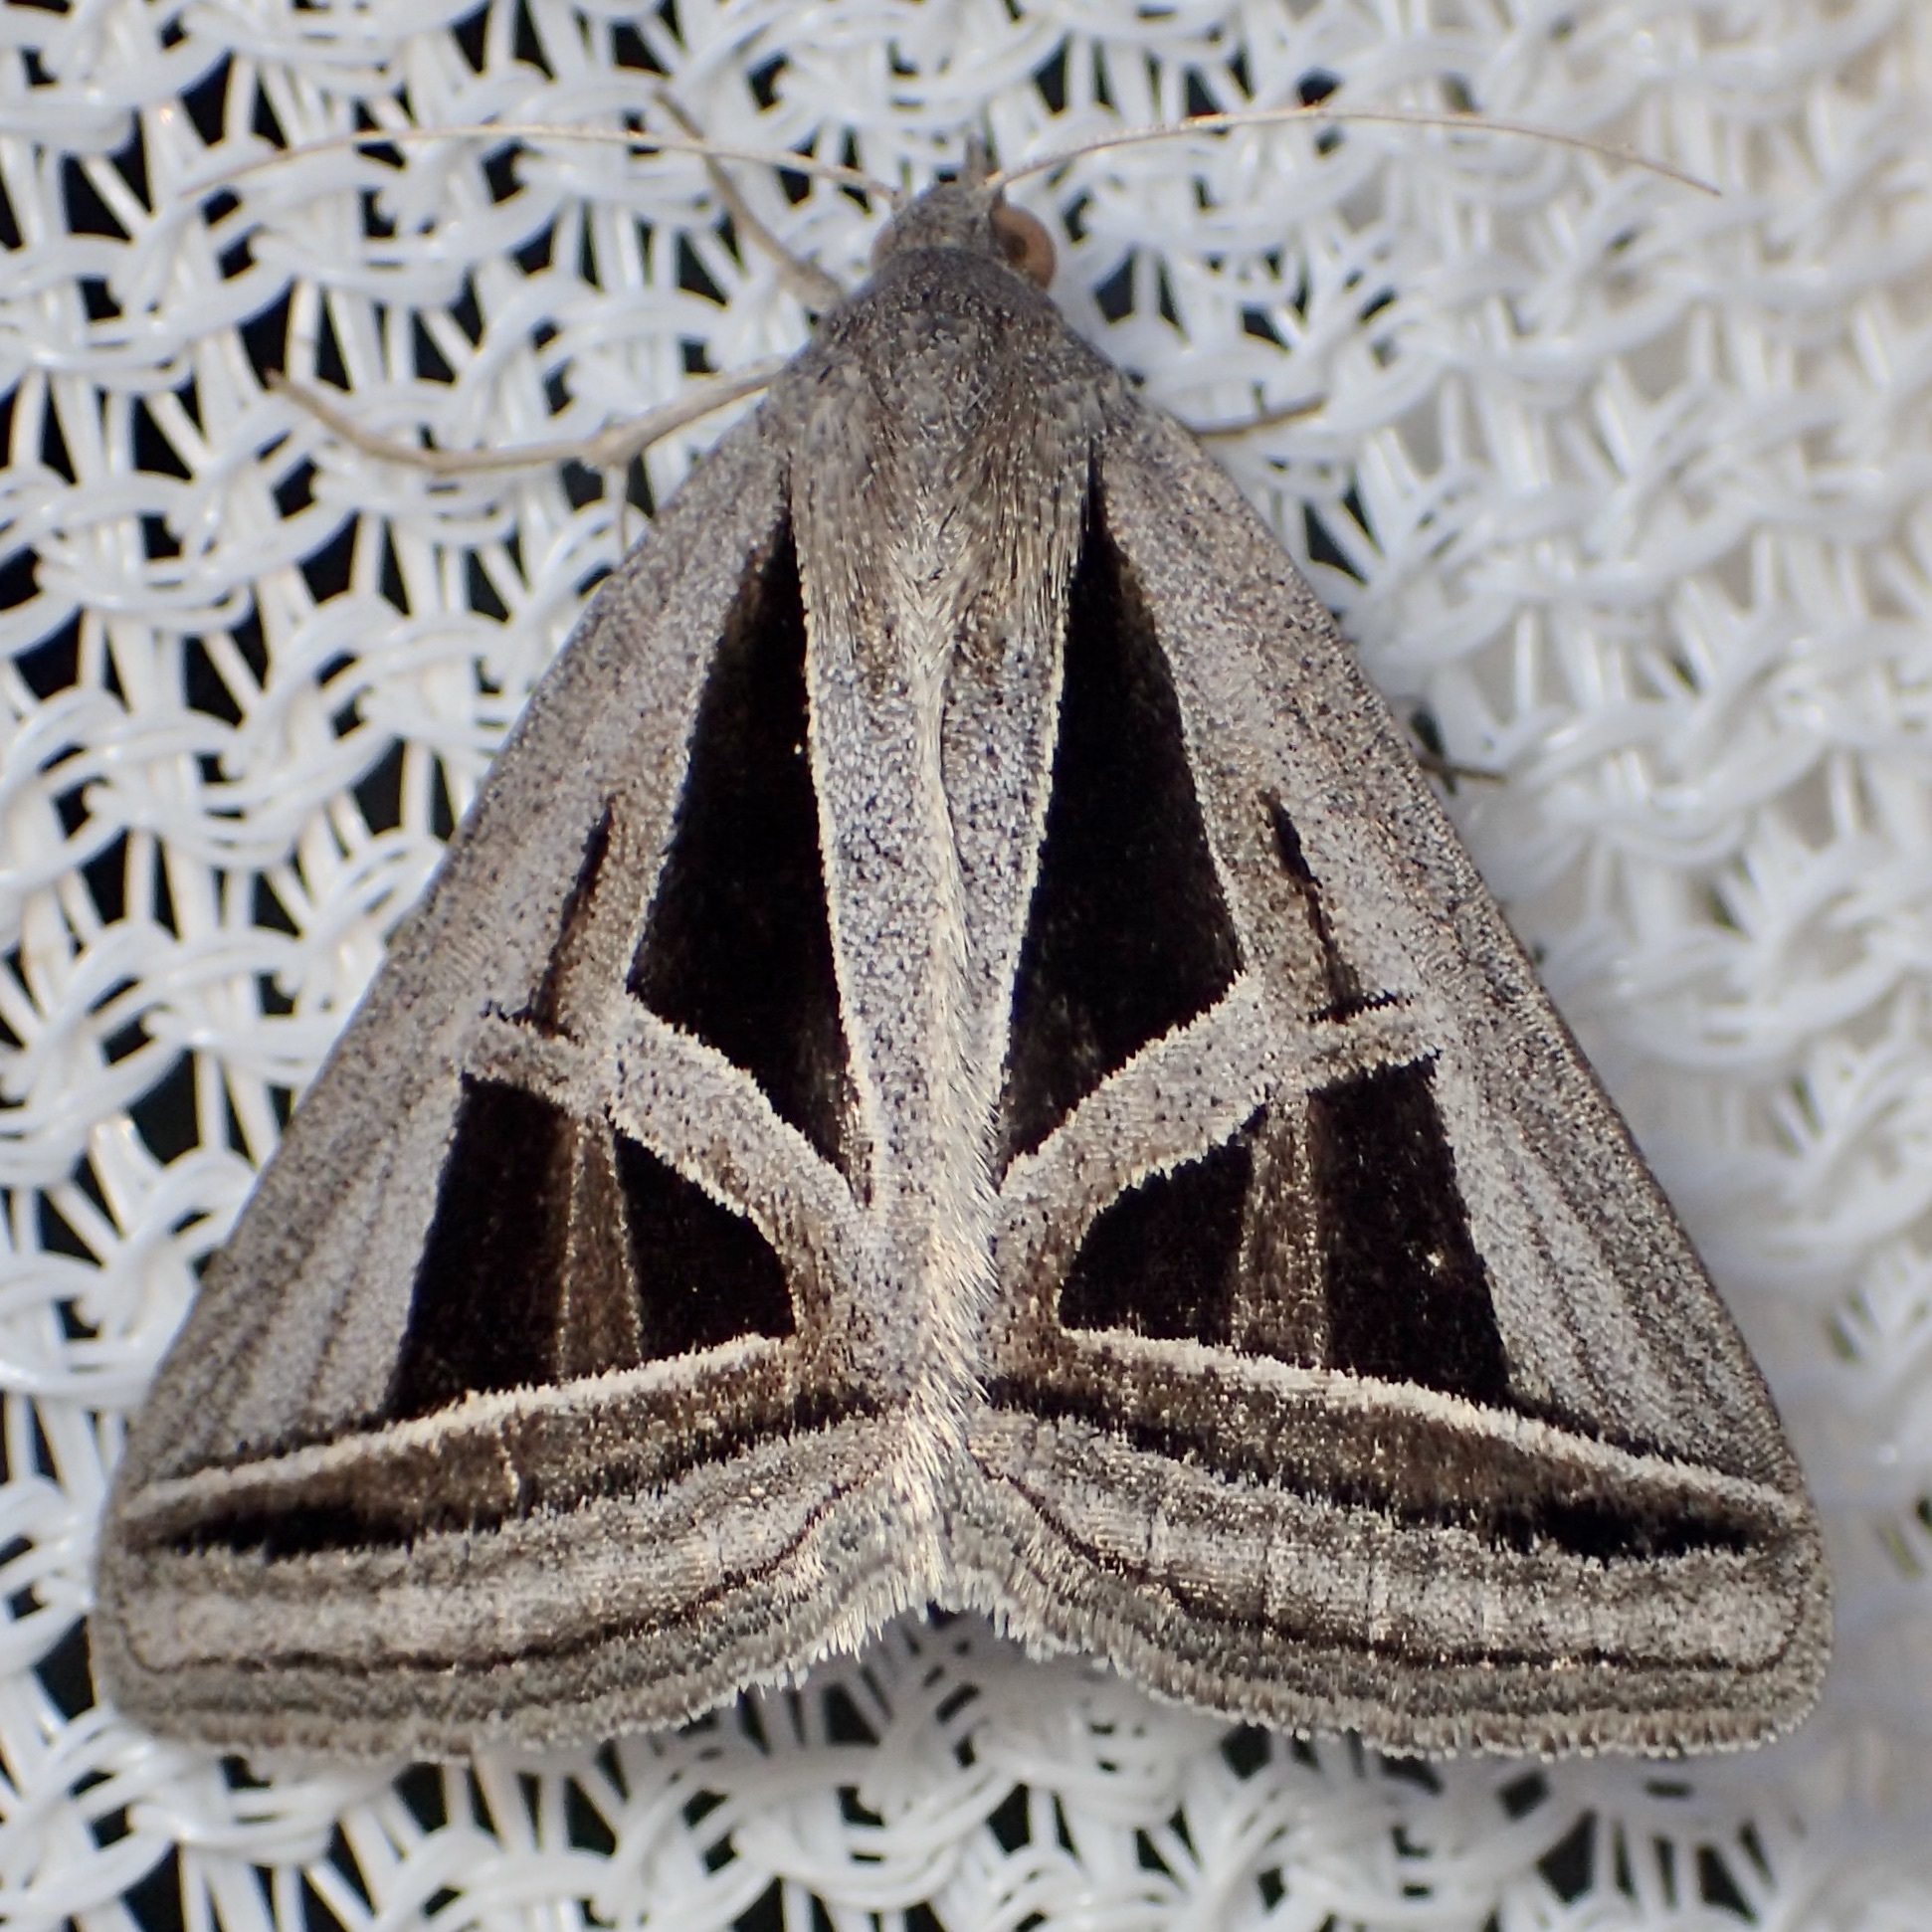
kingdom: Animalia
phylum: Arthropoda
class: Insecta
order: Lepidoptera
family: Erebidae
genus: Callistege
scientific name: Callistege triangula
